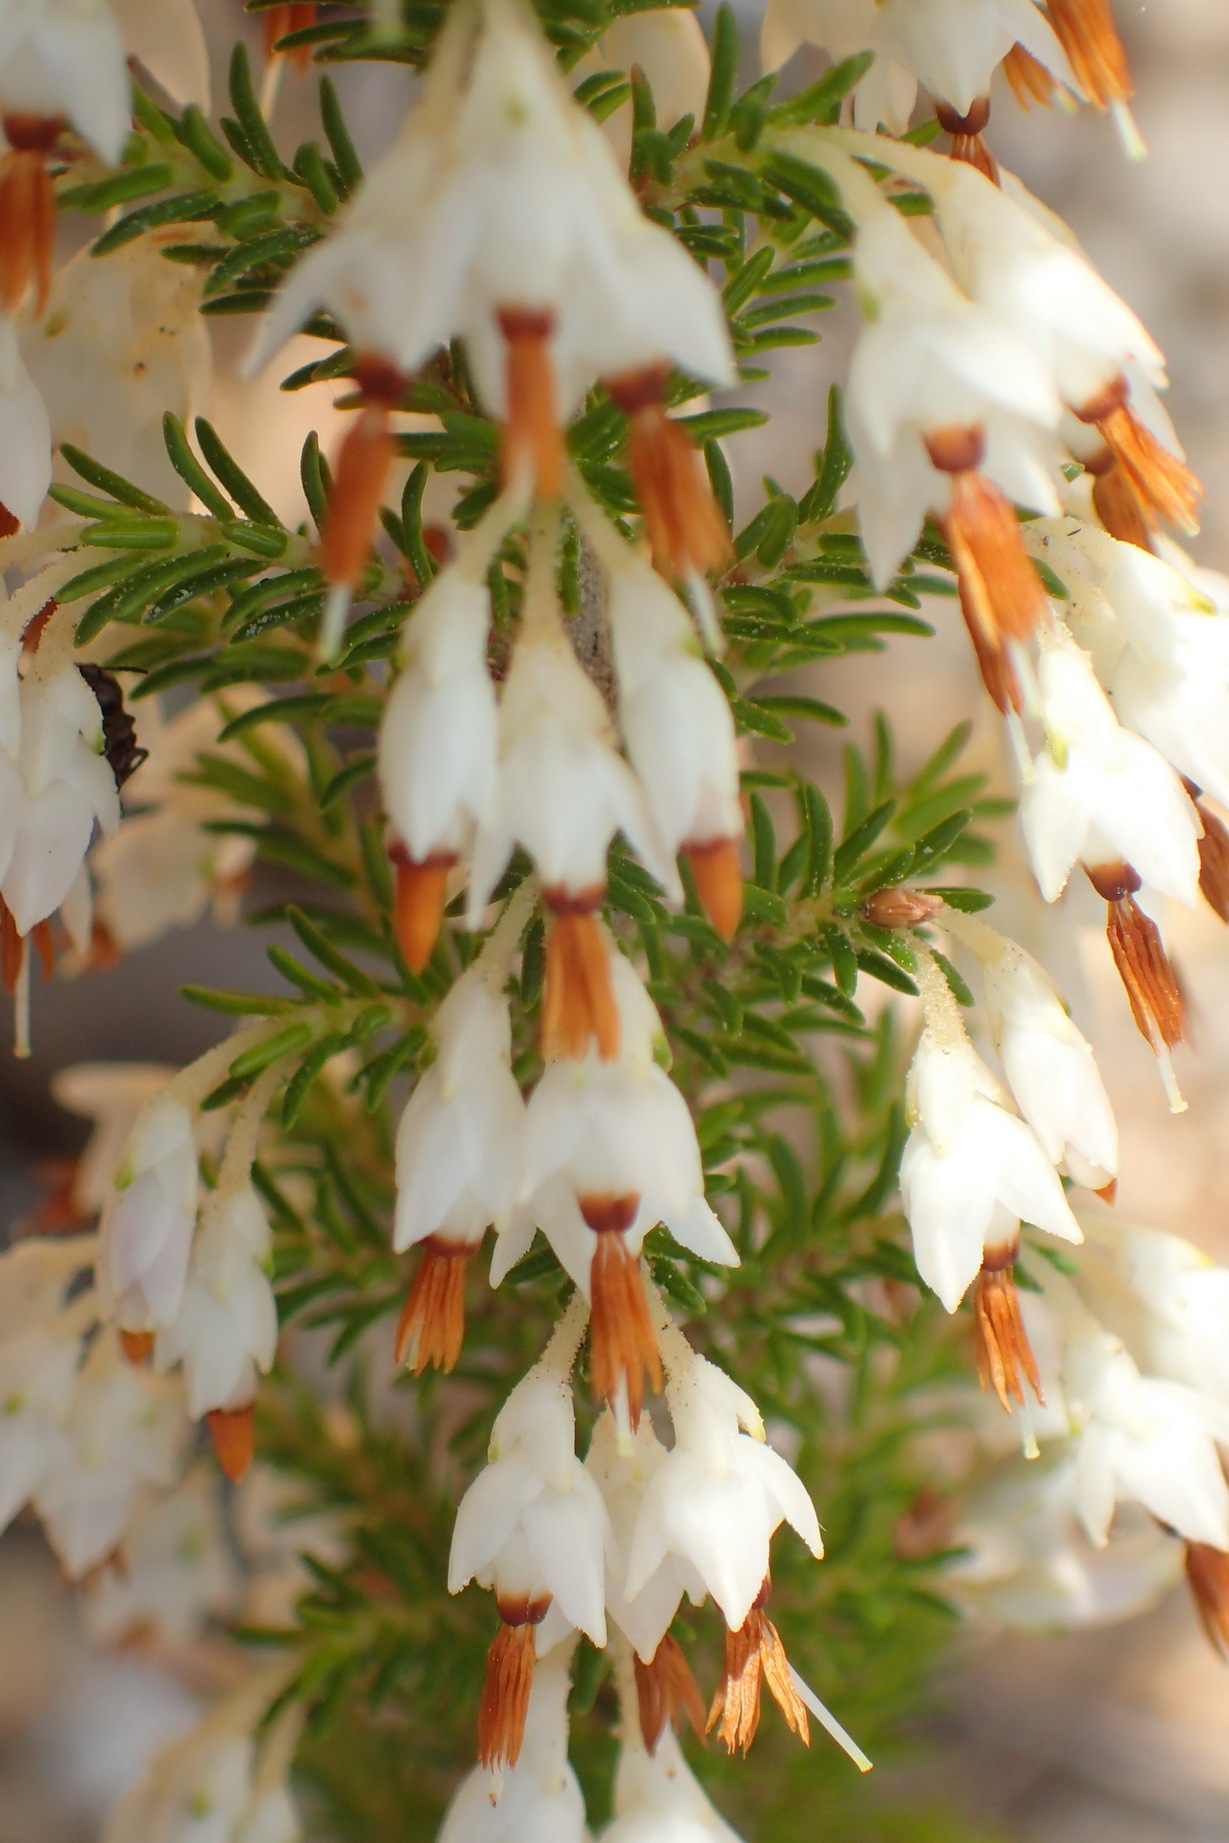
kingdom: Plantae
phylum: Tracheophyta
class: Magnoliopsida
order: Ericales
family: Ericaceae
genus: Erica
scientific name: Erica intermedia
